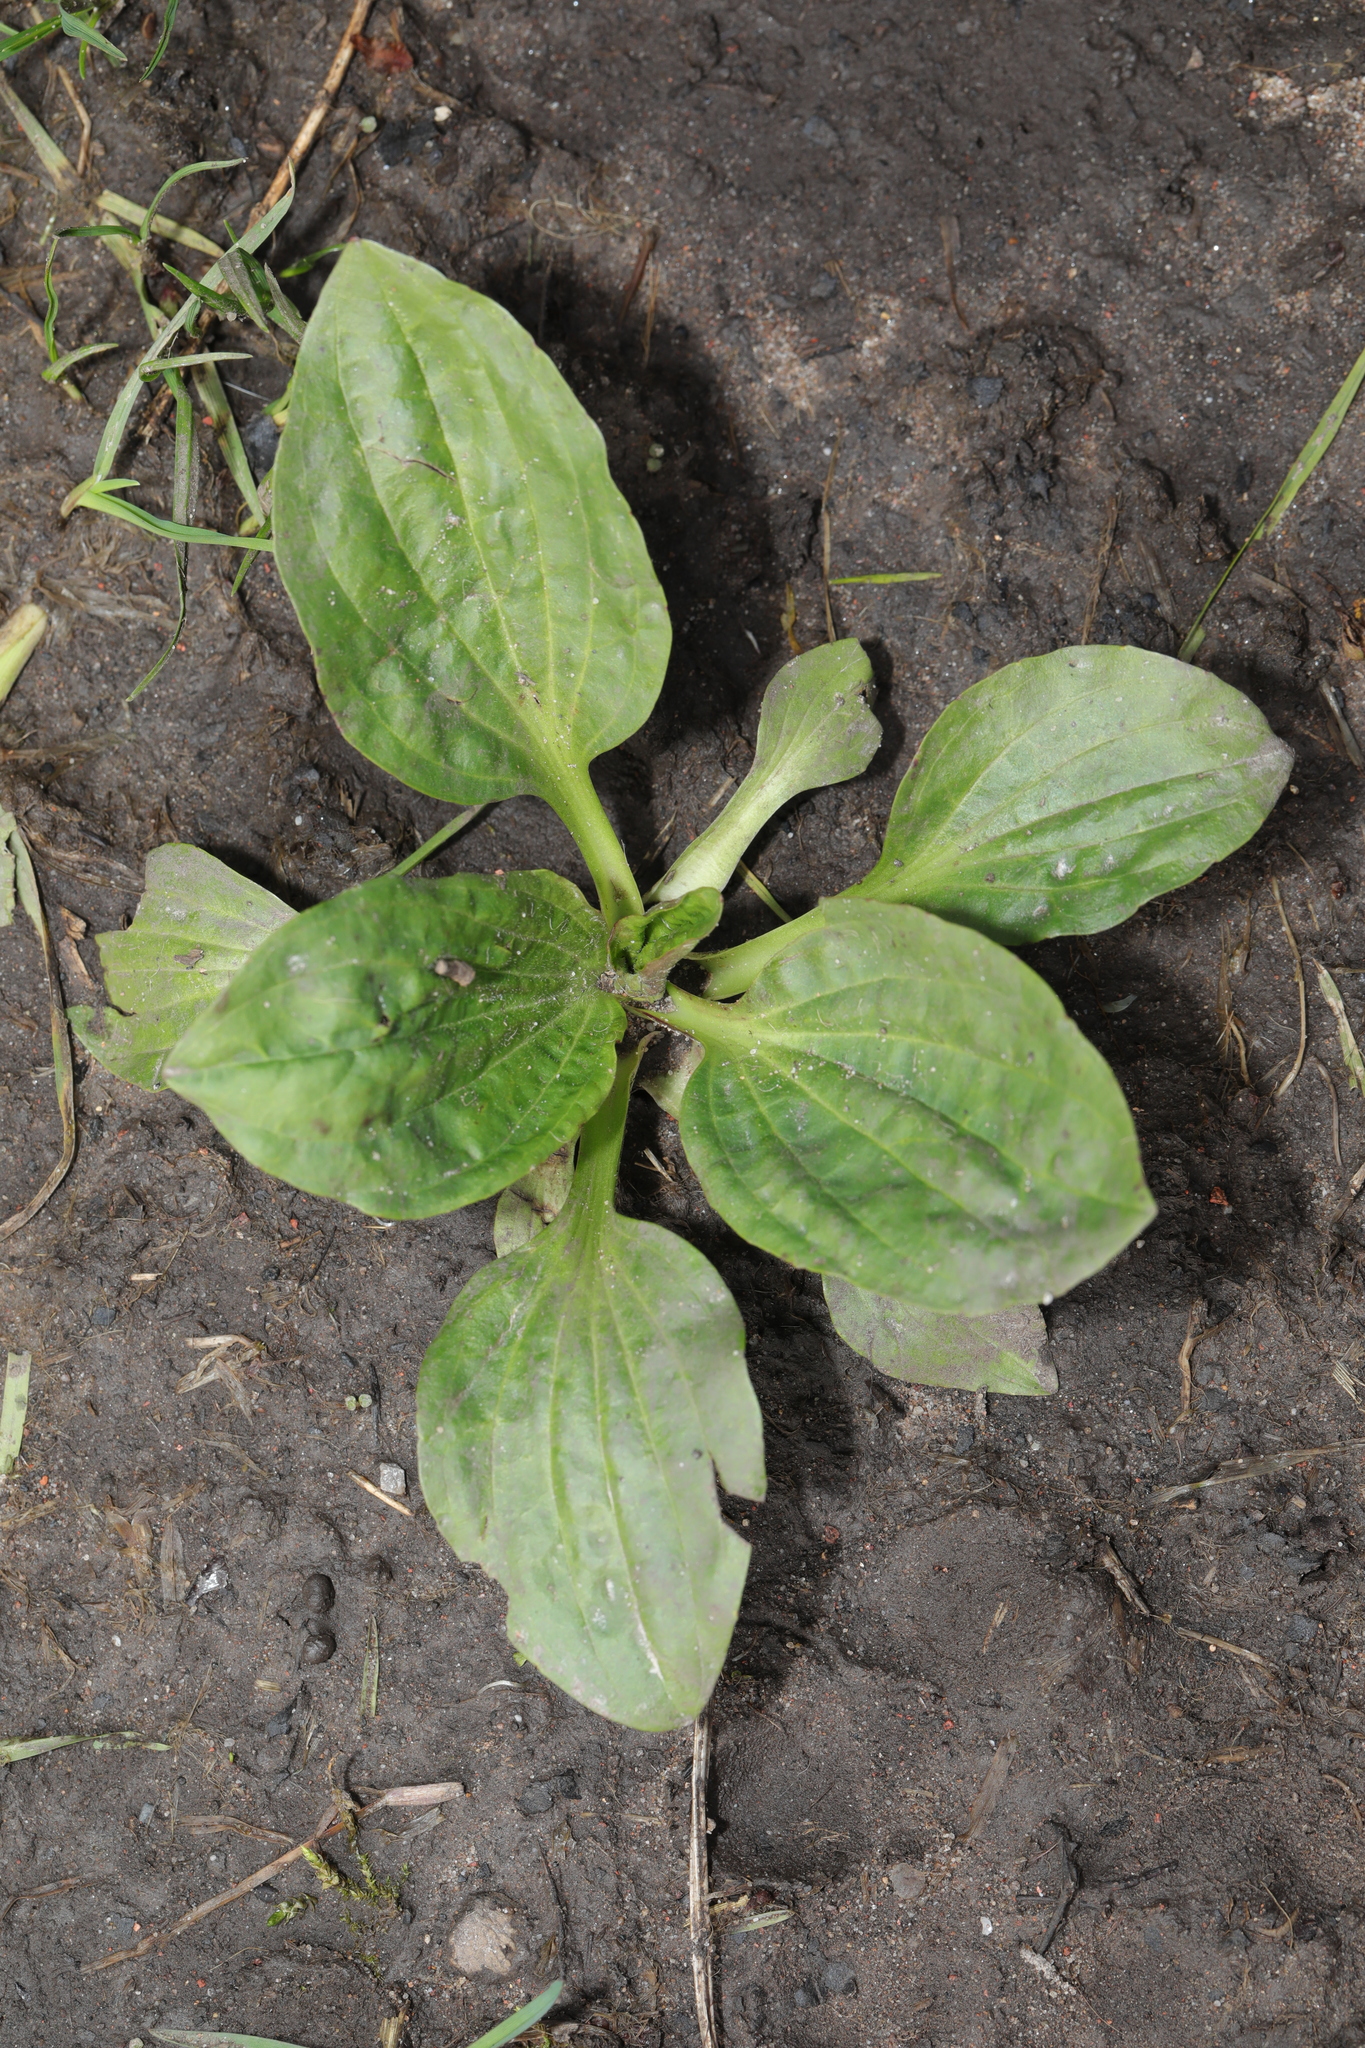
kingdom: Plantae
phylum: Tracheophyta
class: Magnoliopsida
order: Lamiales
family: Plantaginaceae
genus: Plantago
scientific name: Plantago major
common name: Common plantain
